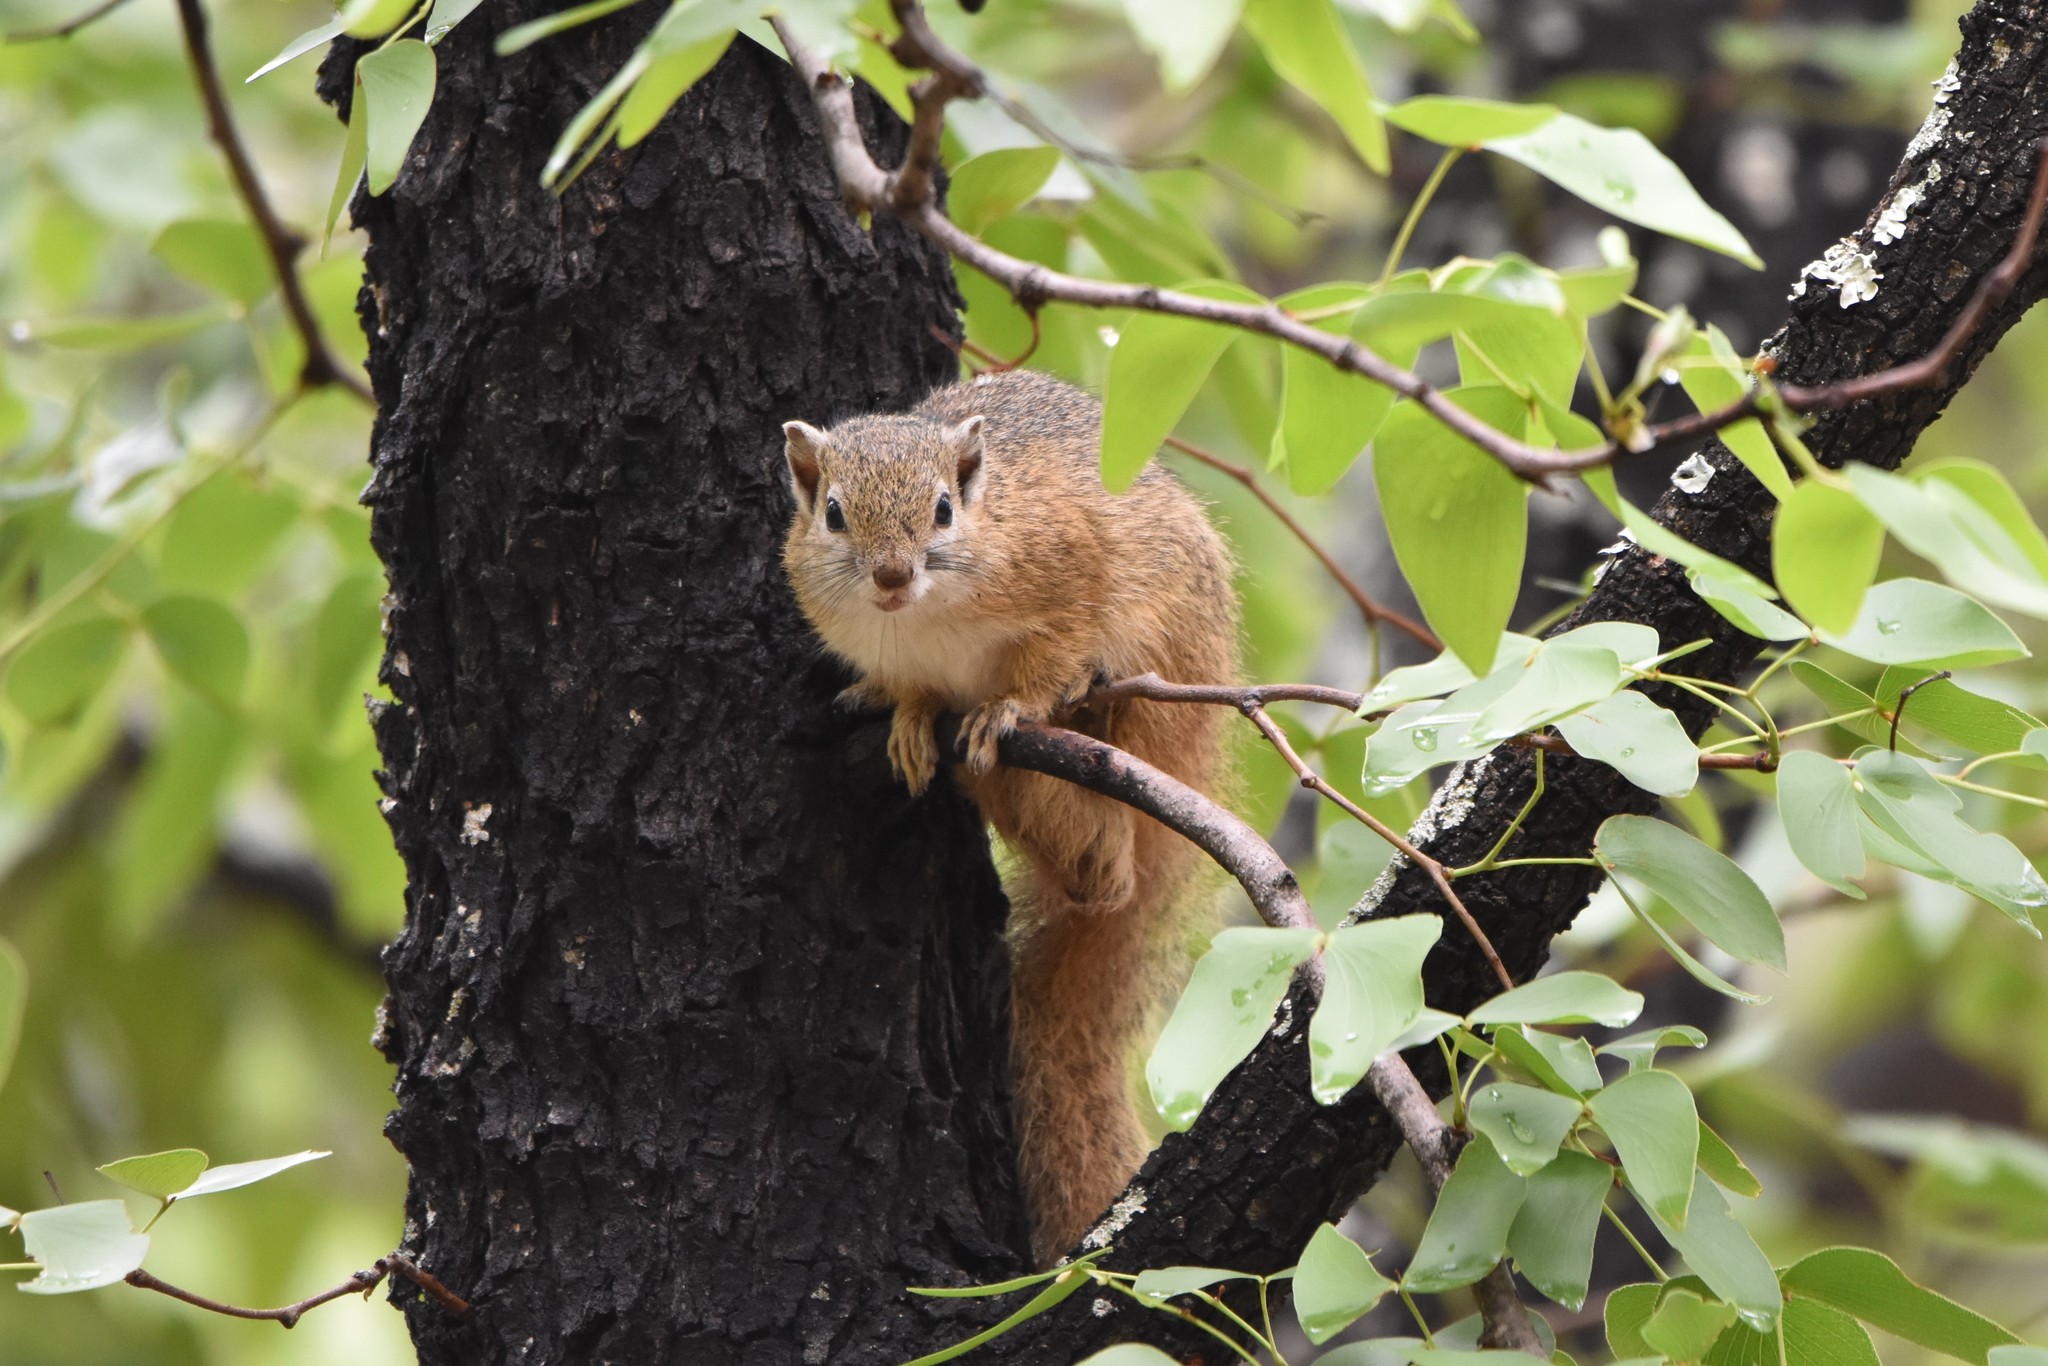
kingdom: Animalia
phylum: Chordata
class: Mammalia
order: Rodentia
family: Sciuridae
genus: Paraxerus
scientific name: Paraxerus cepapi
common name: Smith's bush squirrel
